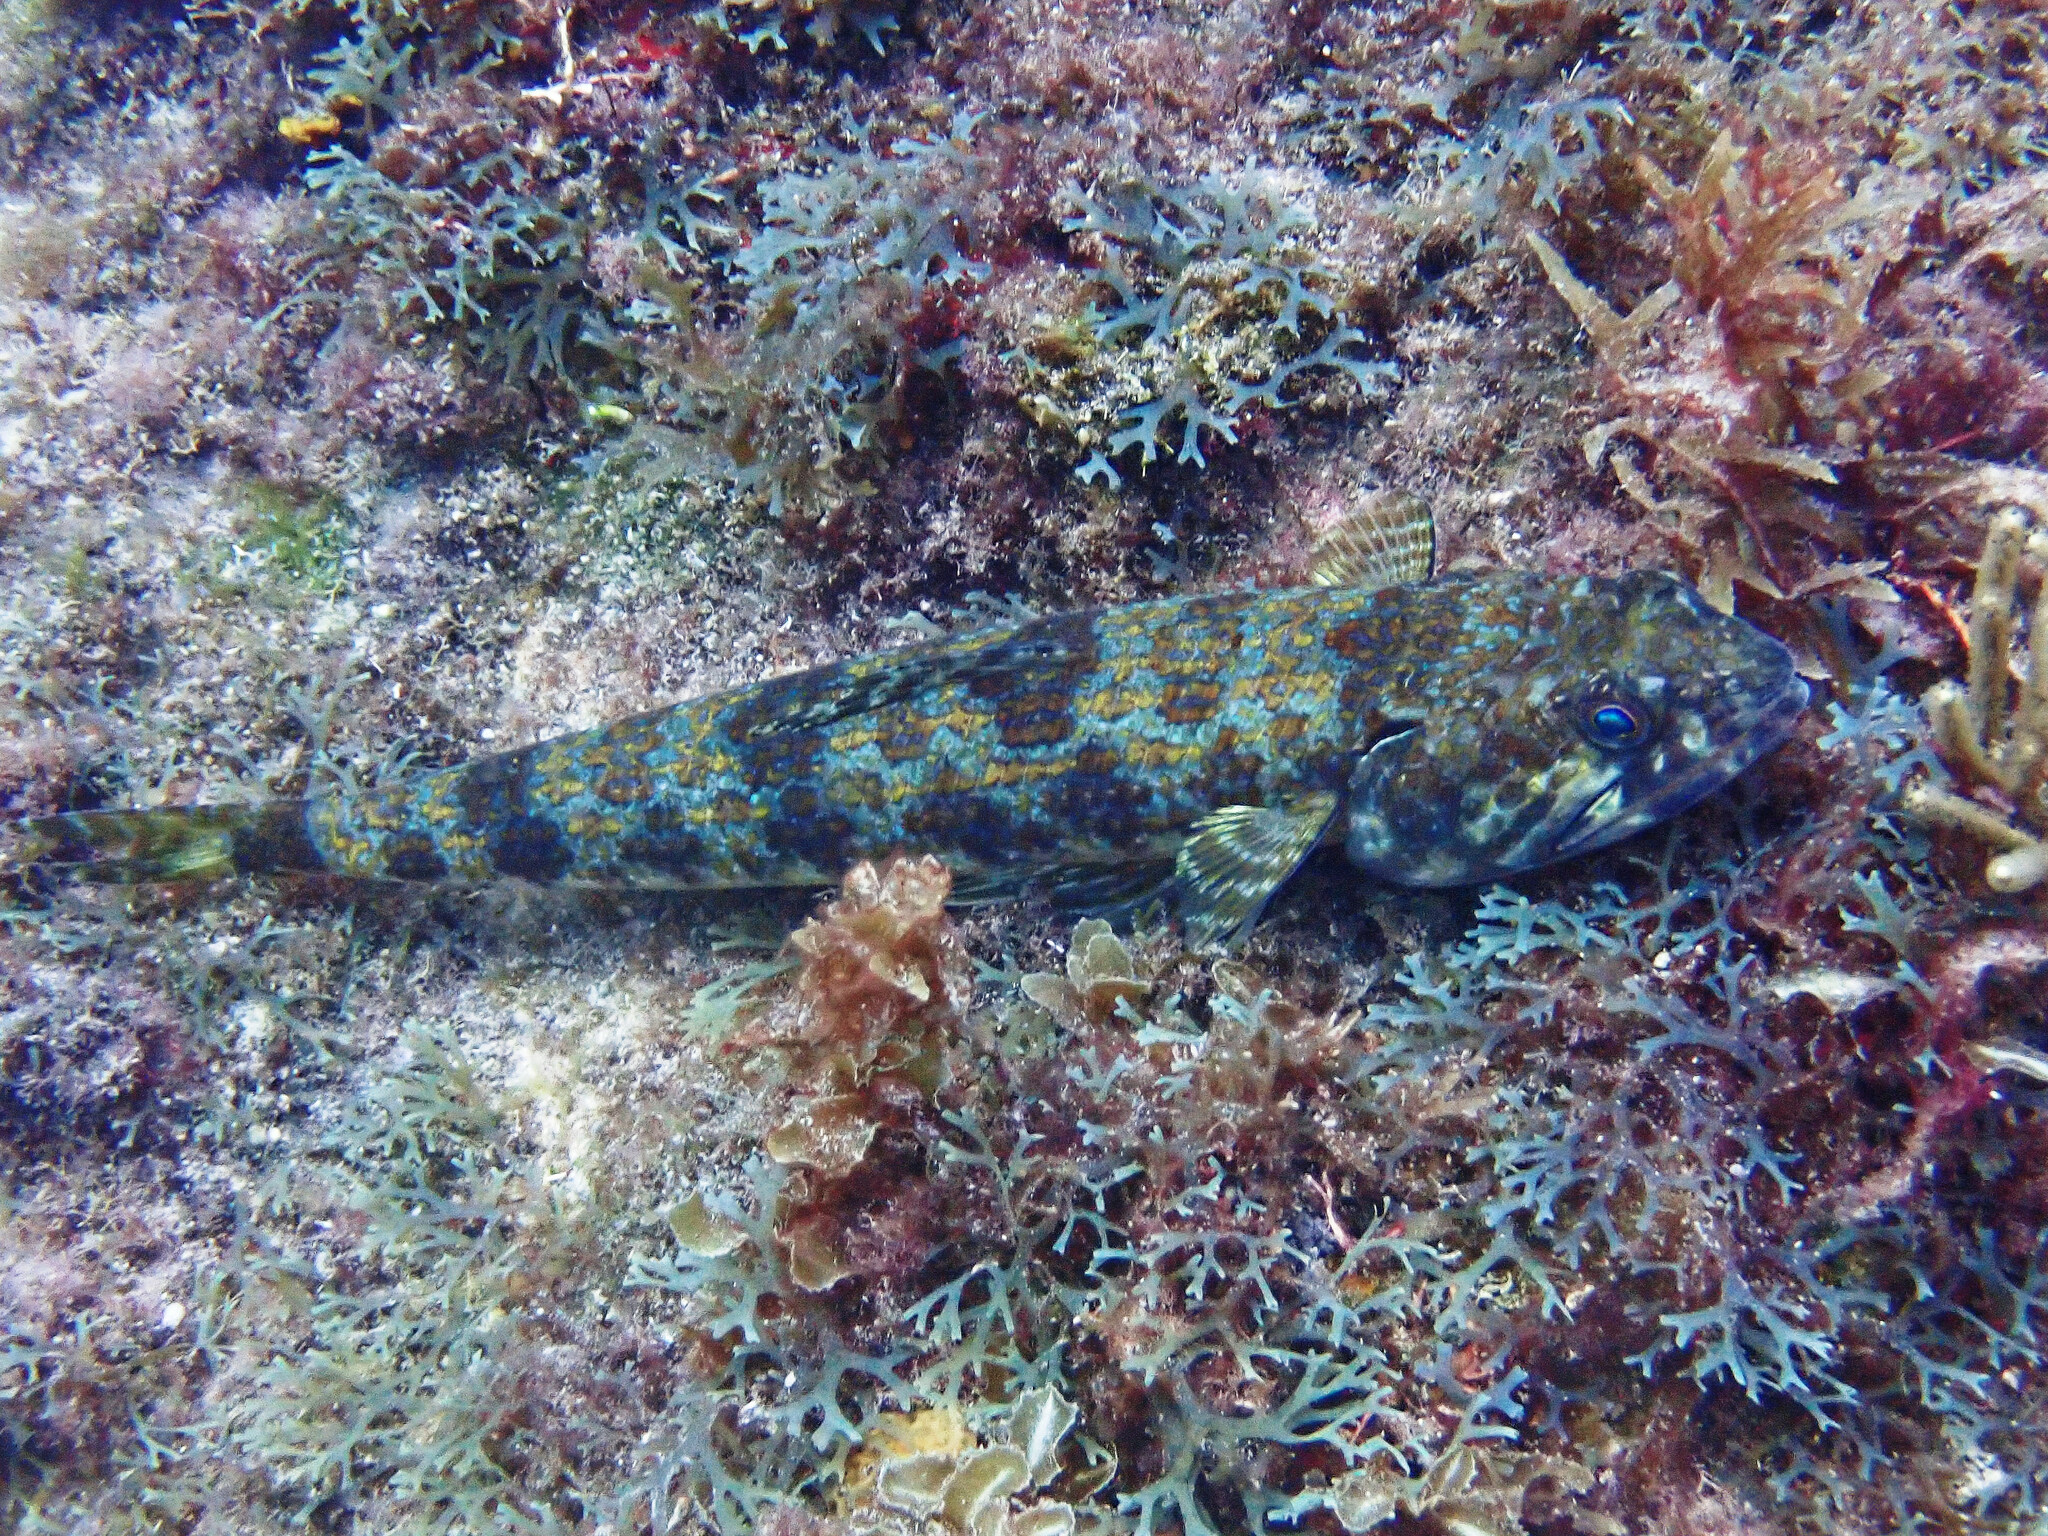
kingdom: Animalia
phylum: Chordata
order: Aulopiformes
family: Synodontidae
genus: Synodus
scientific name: Synodus intermedius
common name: Sand diver
